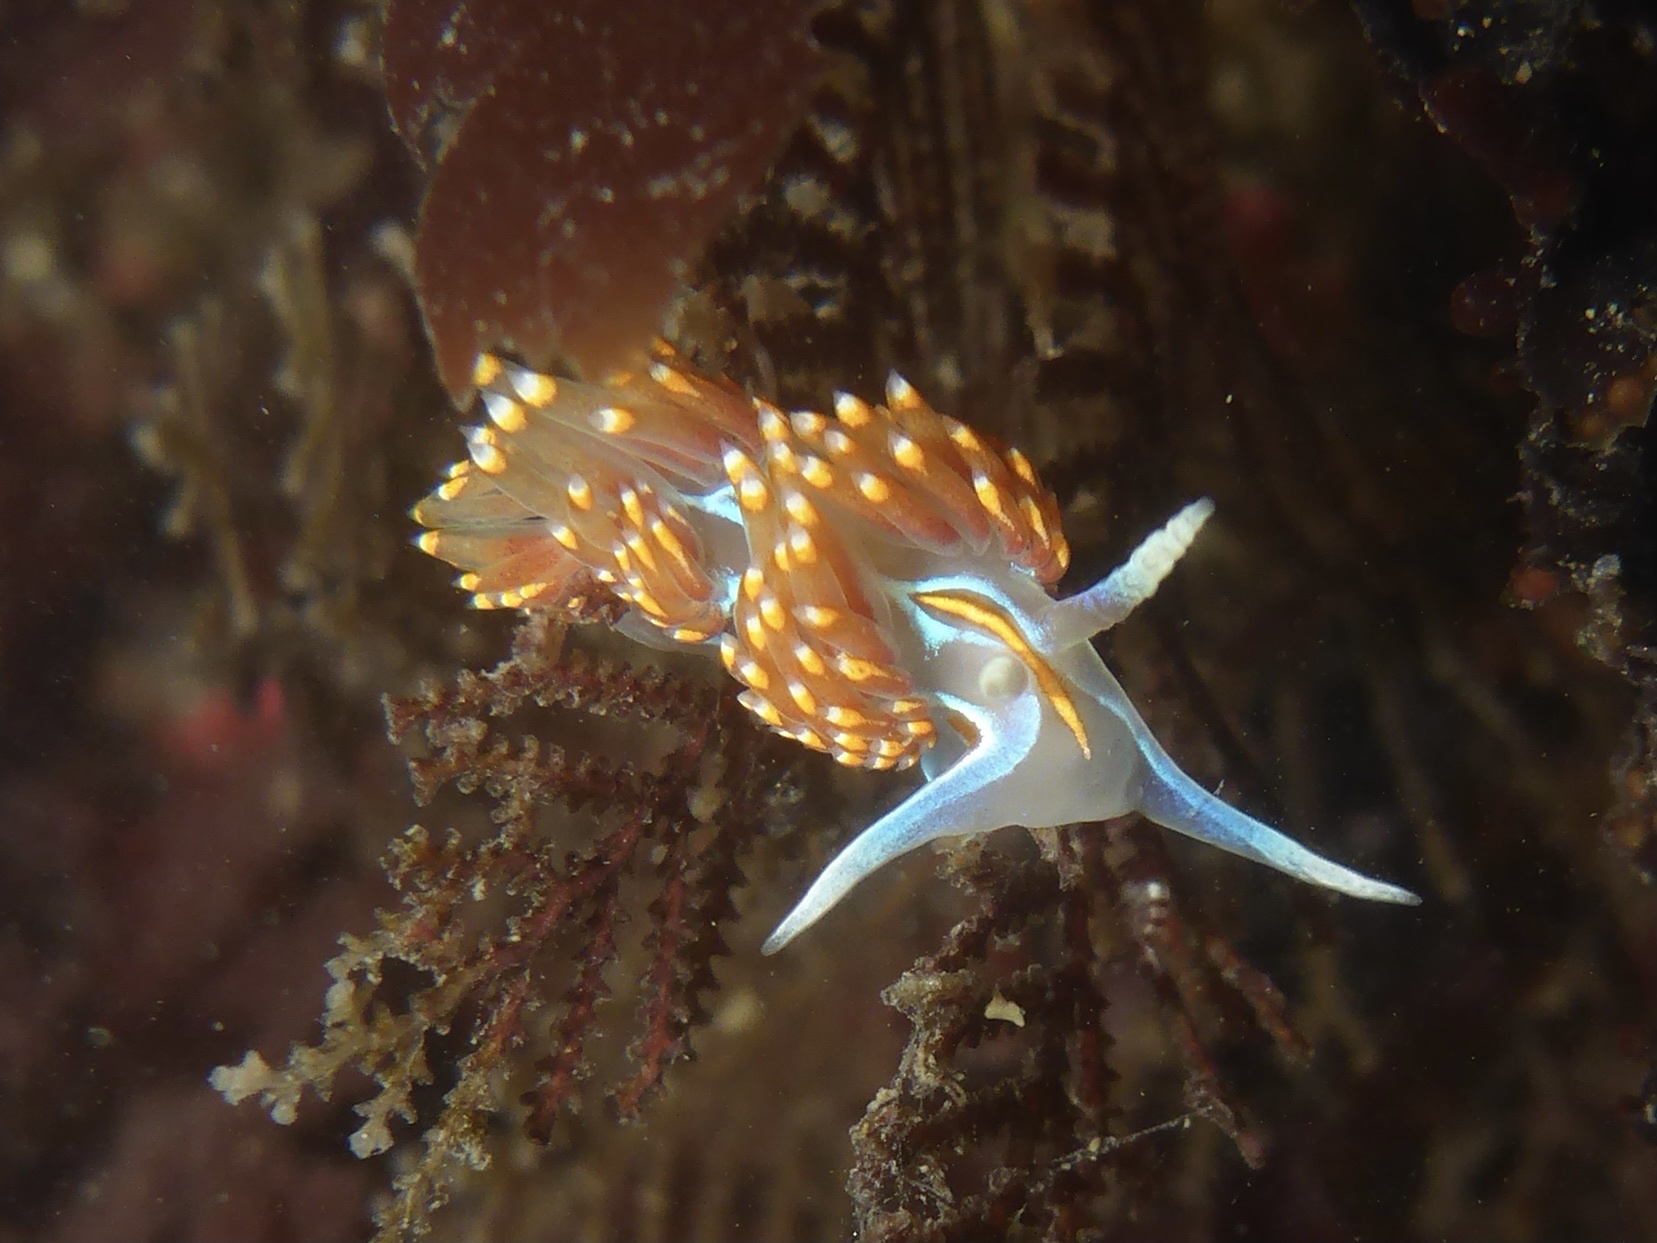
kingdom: Animalia
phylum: Mollusca
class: Gastropoda
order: Nudibranchia
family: Myrrhinidae
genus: Hermissenda
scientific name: Hermissenda opalescens
